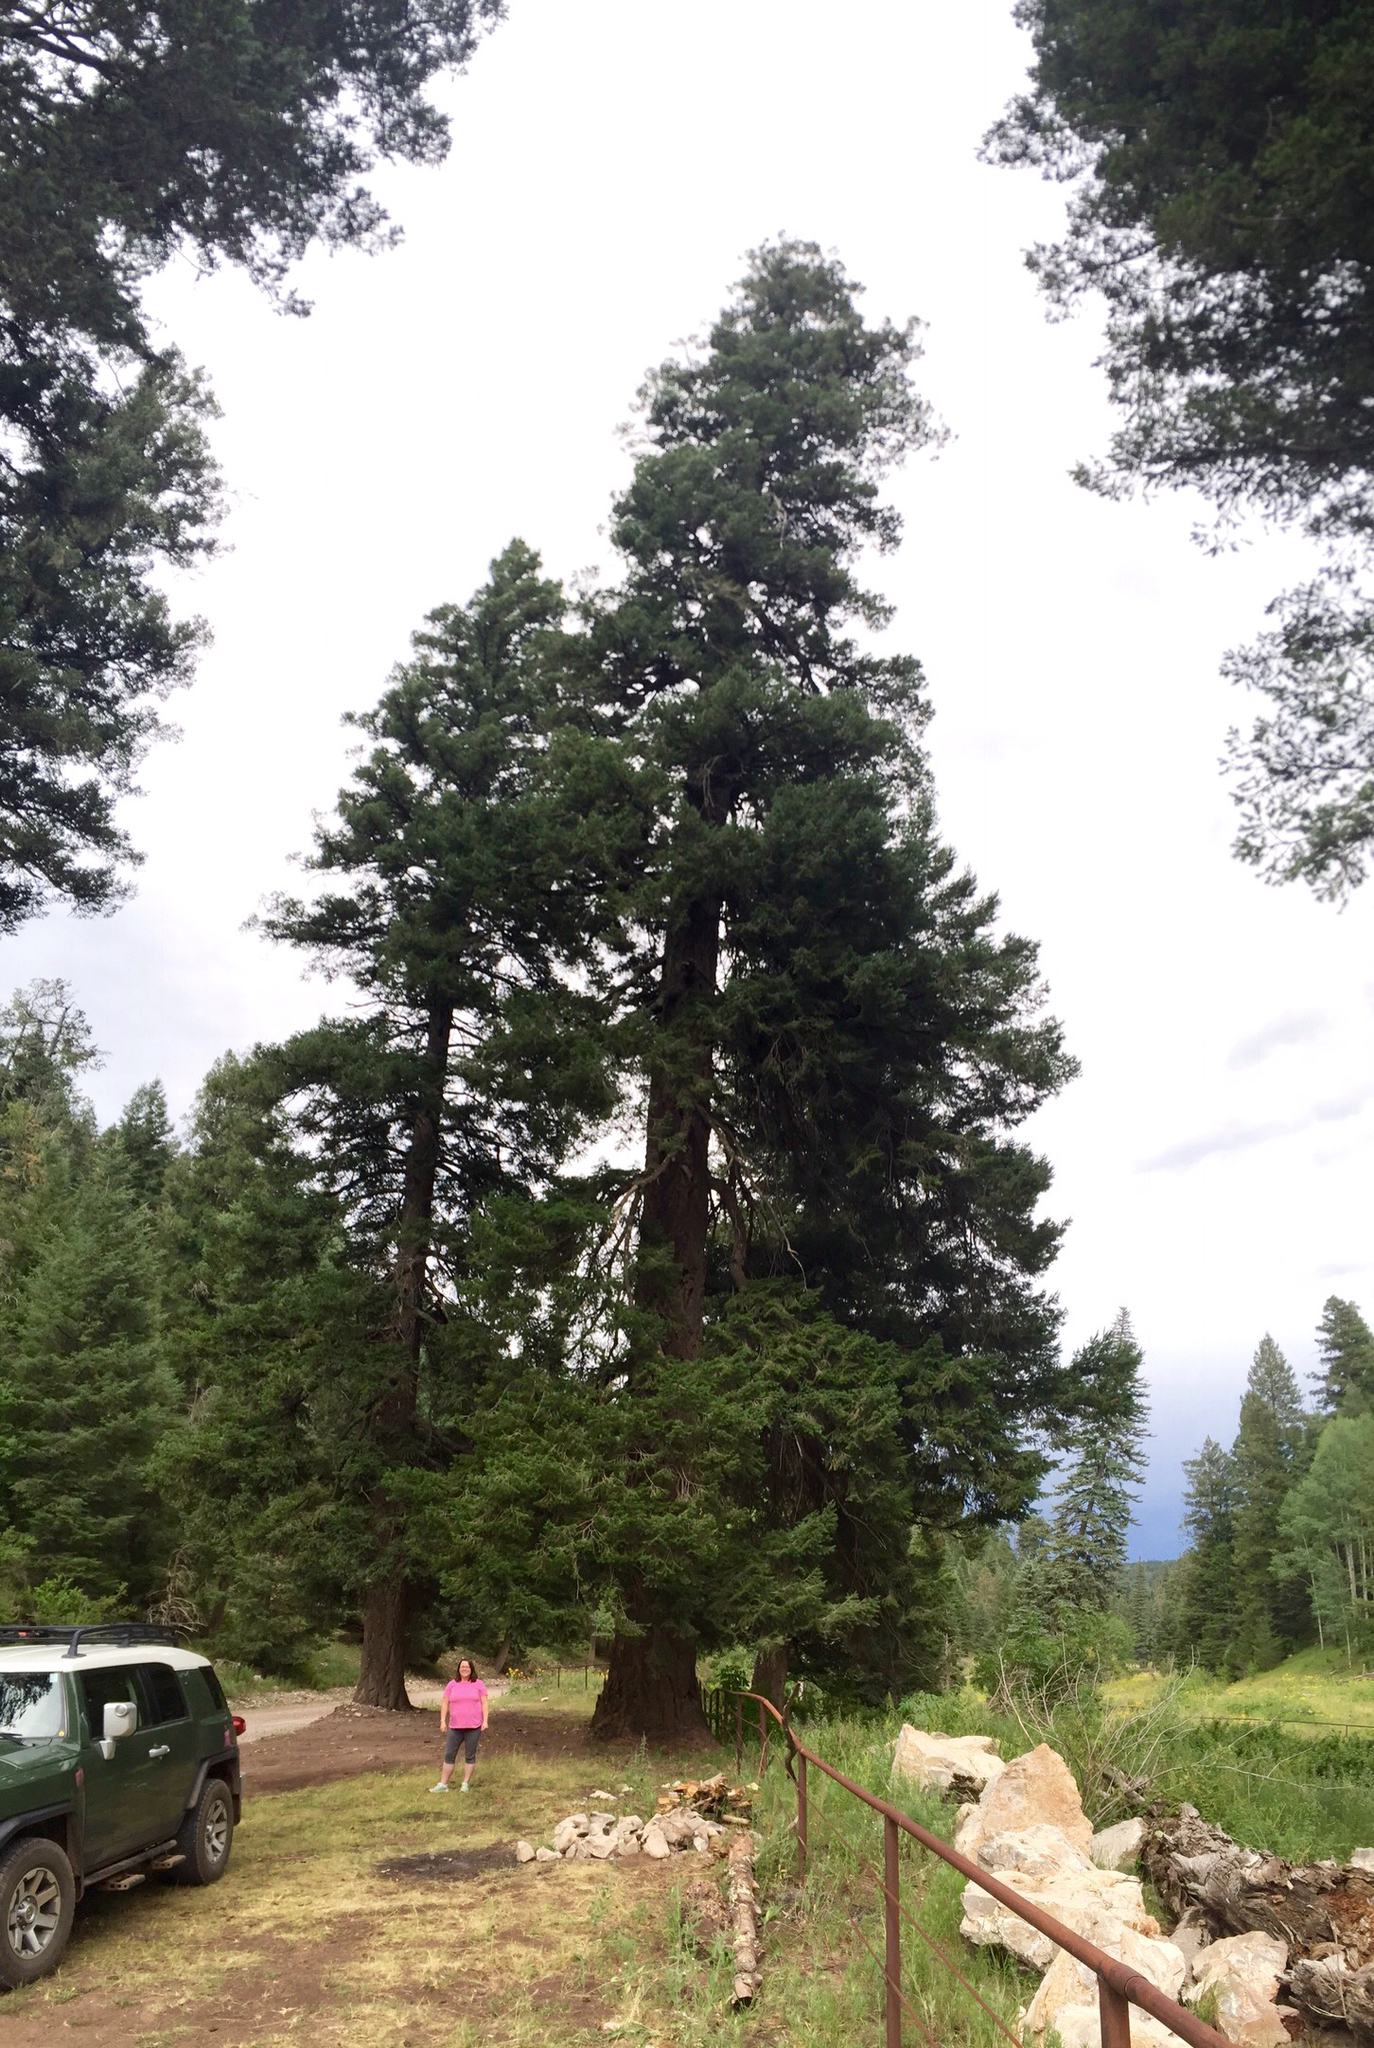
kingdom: Plantae
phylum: Tracheophyta
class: Pinopsida
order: Pinales
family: Pinaceae
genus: Pseudotsuga
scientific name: Pseudotsuga menziesii
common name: Douglas fir
